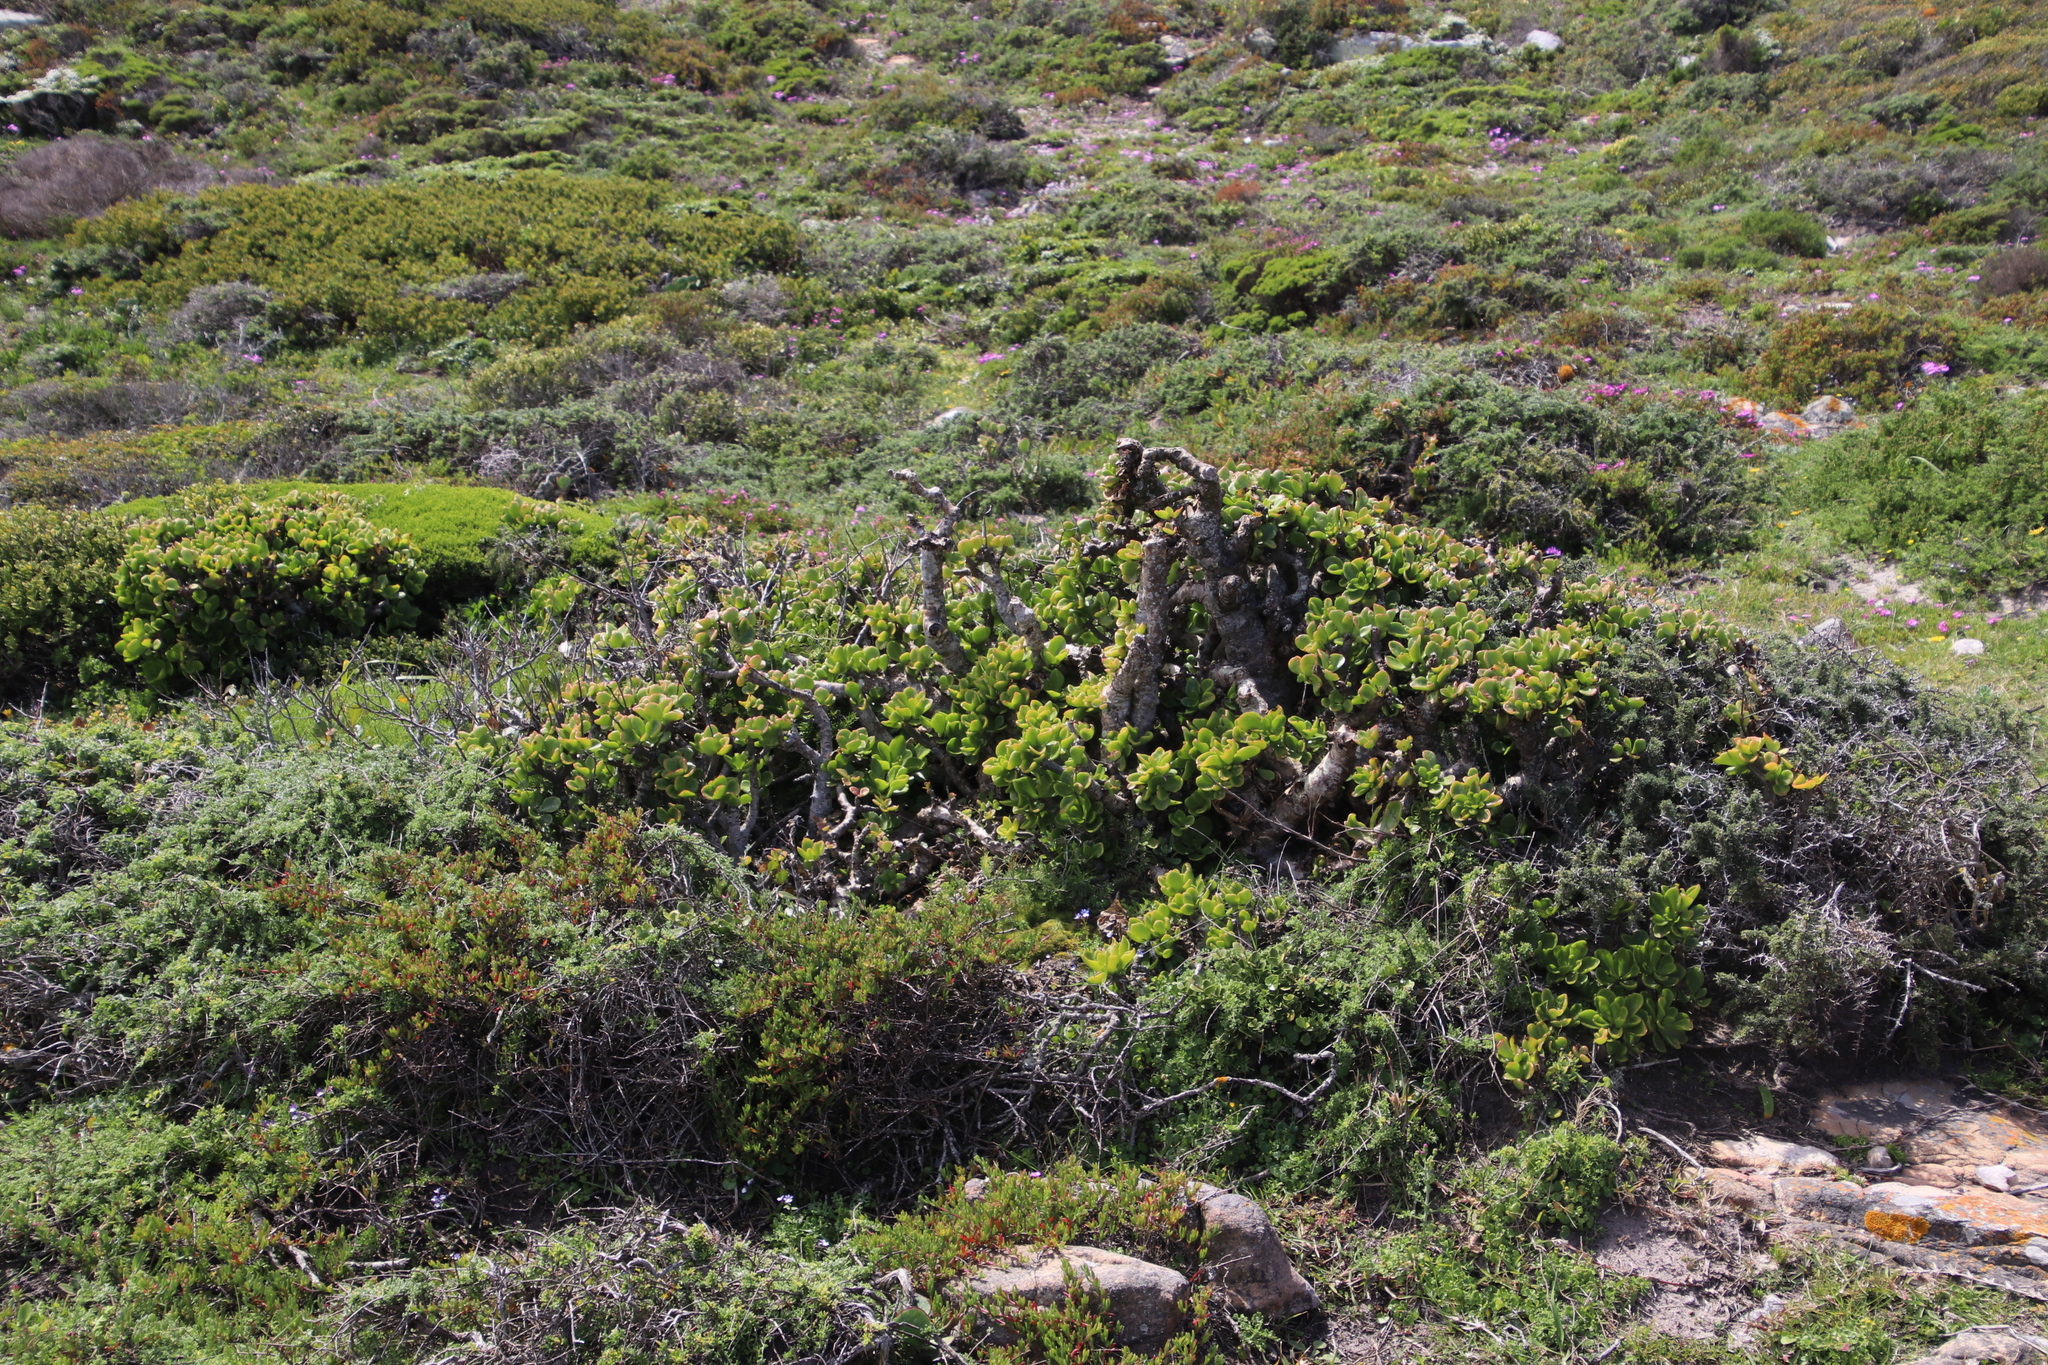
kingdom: Plantae
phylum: Tracheophyta
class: Magnoliopsida
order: Saxifragales
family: Crassulaceae
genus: Tylecodon
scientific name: Tylecodon paniculatus
